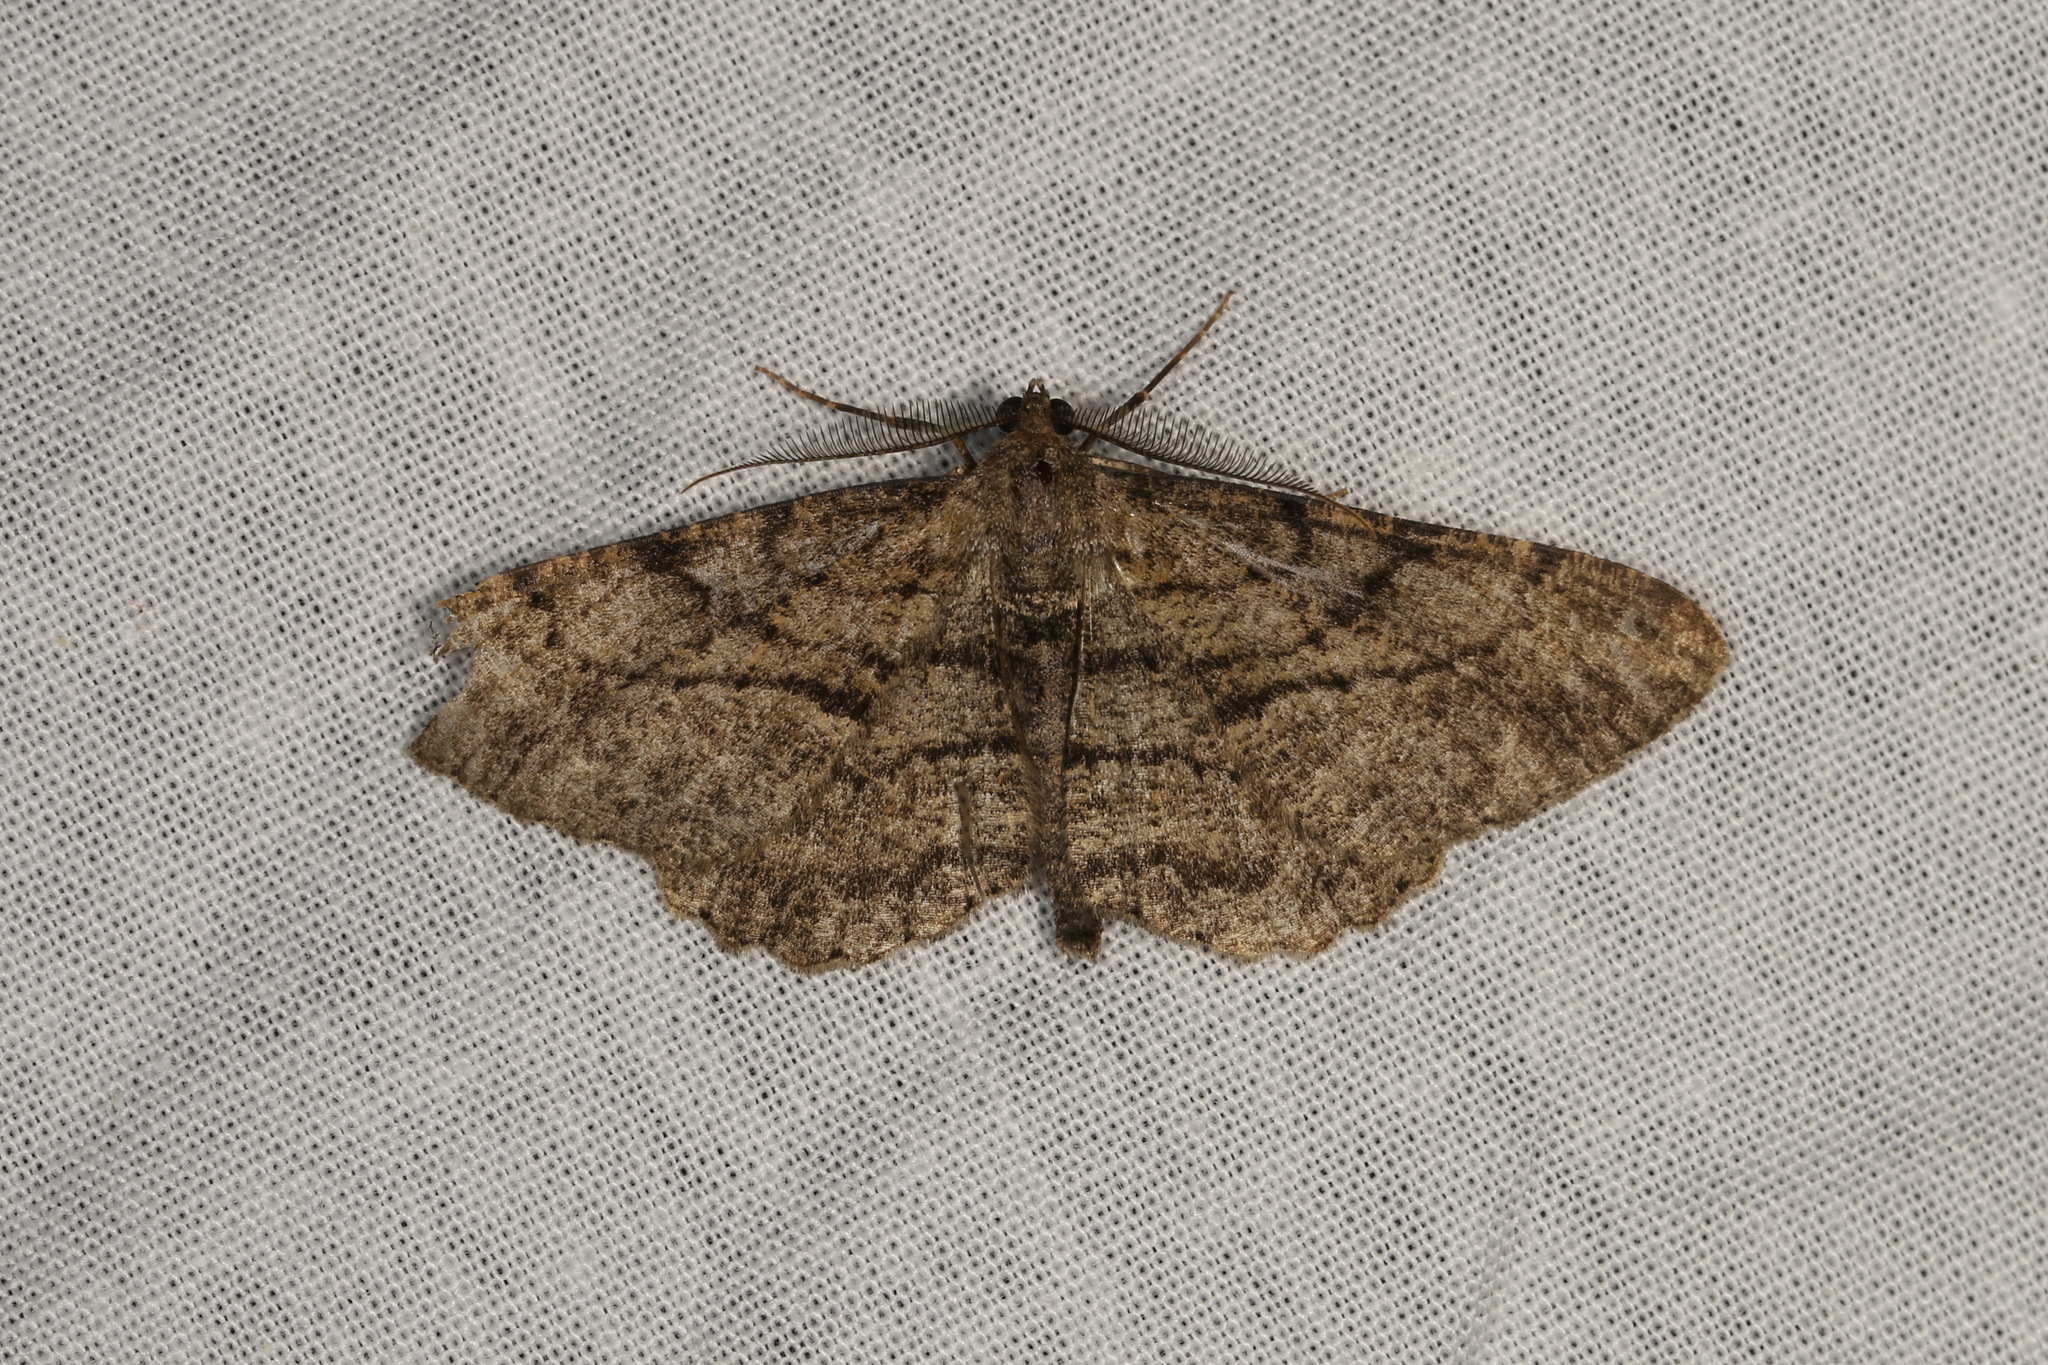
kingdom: Animalia
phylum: Arthropoda
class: Insecta
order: Lepidoptera
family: Geometridae
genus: Peribatodes
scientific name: Peribatodes rhomboidaria
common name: Willow beauty
